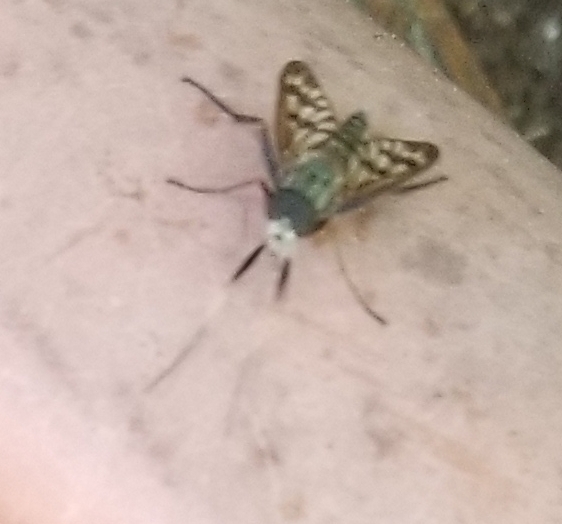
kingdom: Animalia
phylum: Arthropoda
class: Insecta
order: Diptera
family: Rhagionidae
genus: Rhagio
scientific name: Rhagio mystaceus
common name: Common snipe fly
